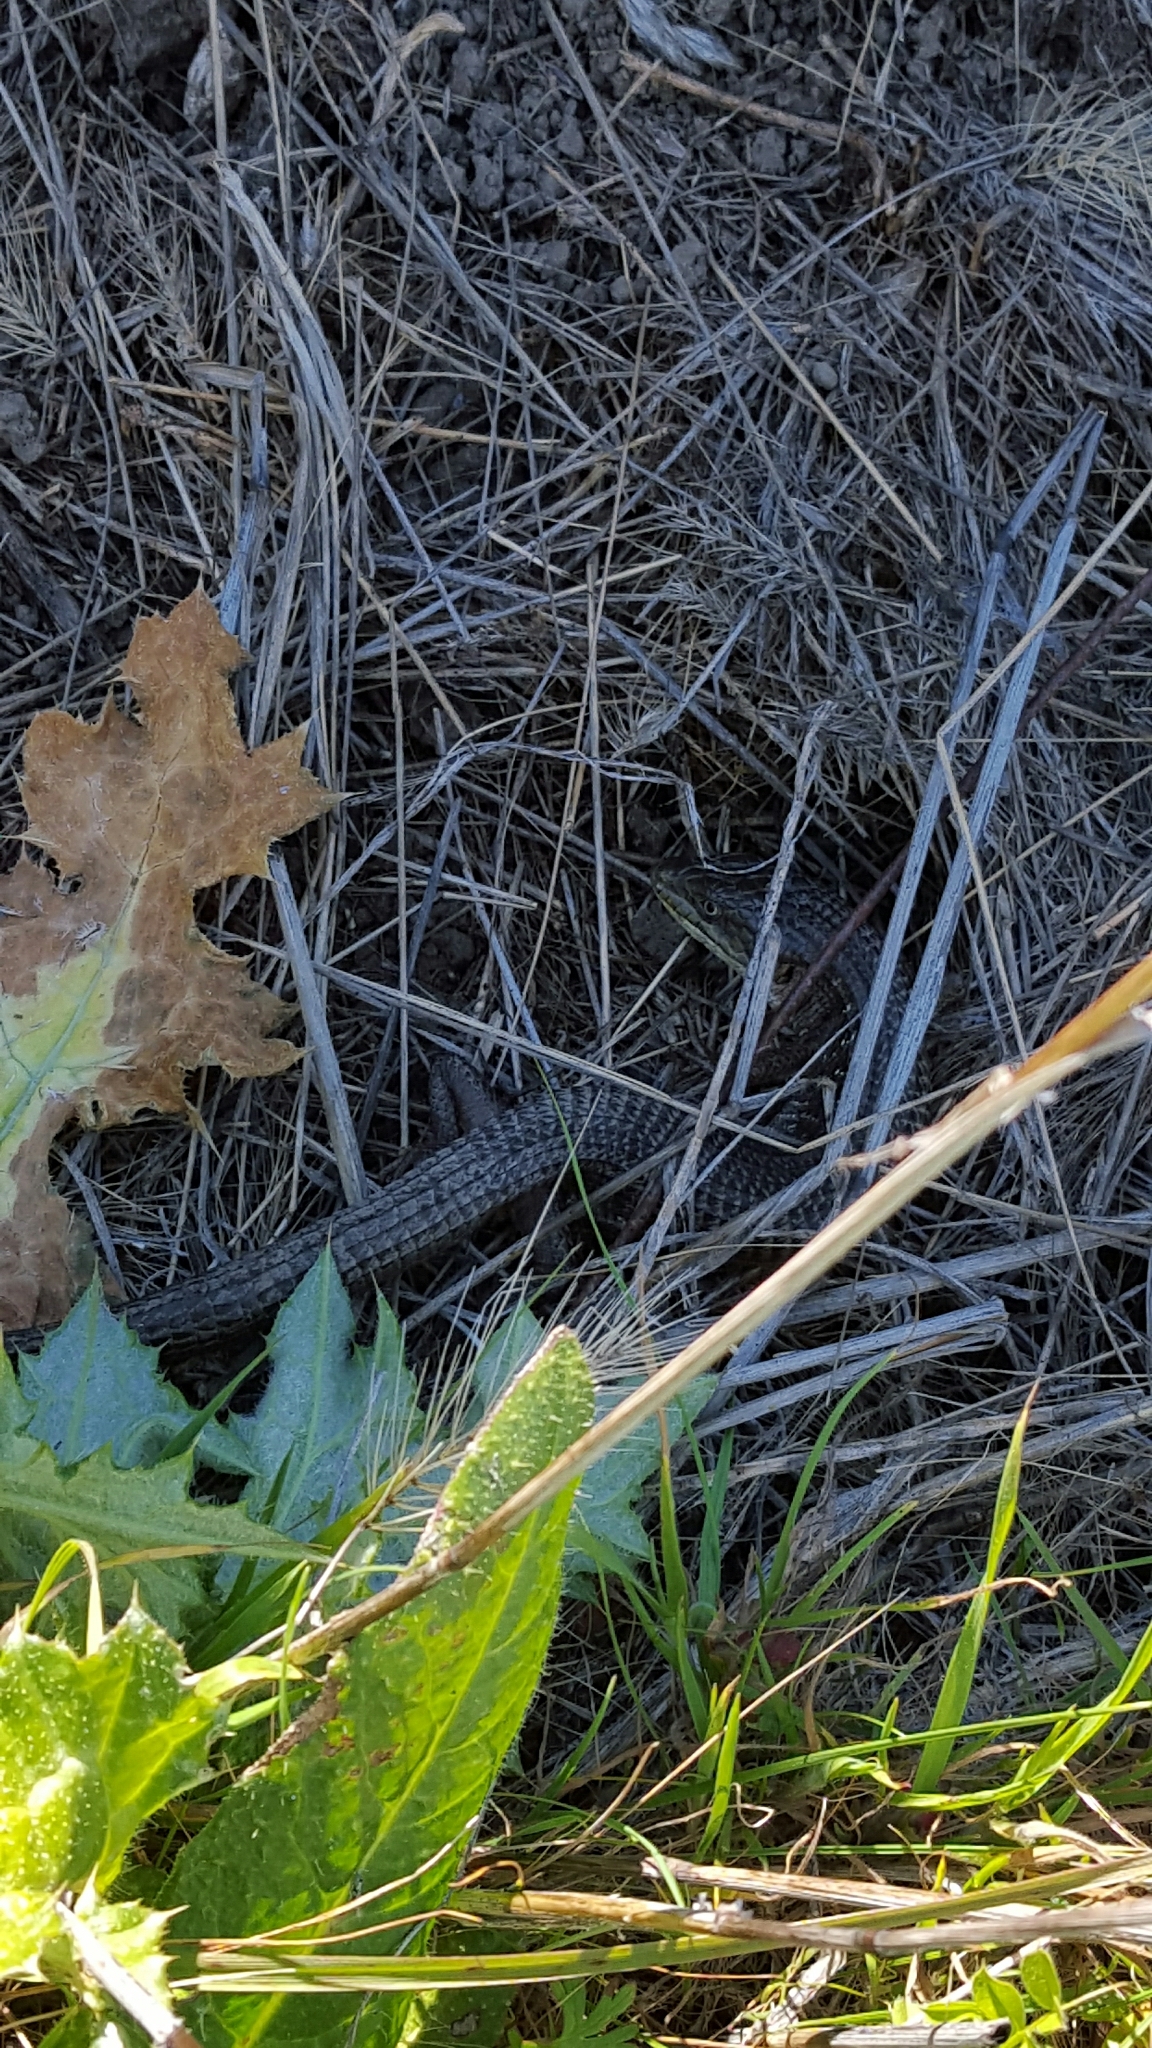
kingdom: Animalia
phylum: Chordata
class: Squamata
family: Anguidae
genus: Elgaria
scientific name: Elgaria multicarinata
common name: Southern alligator lizard
